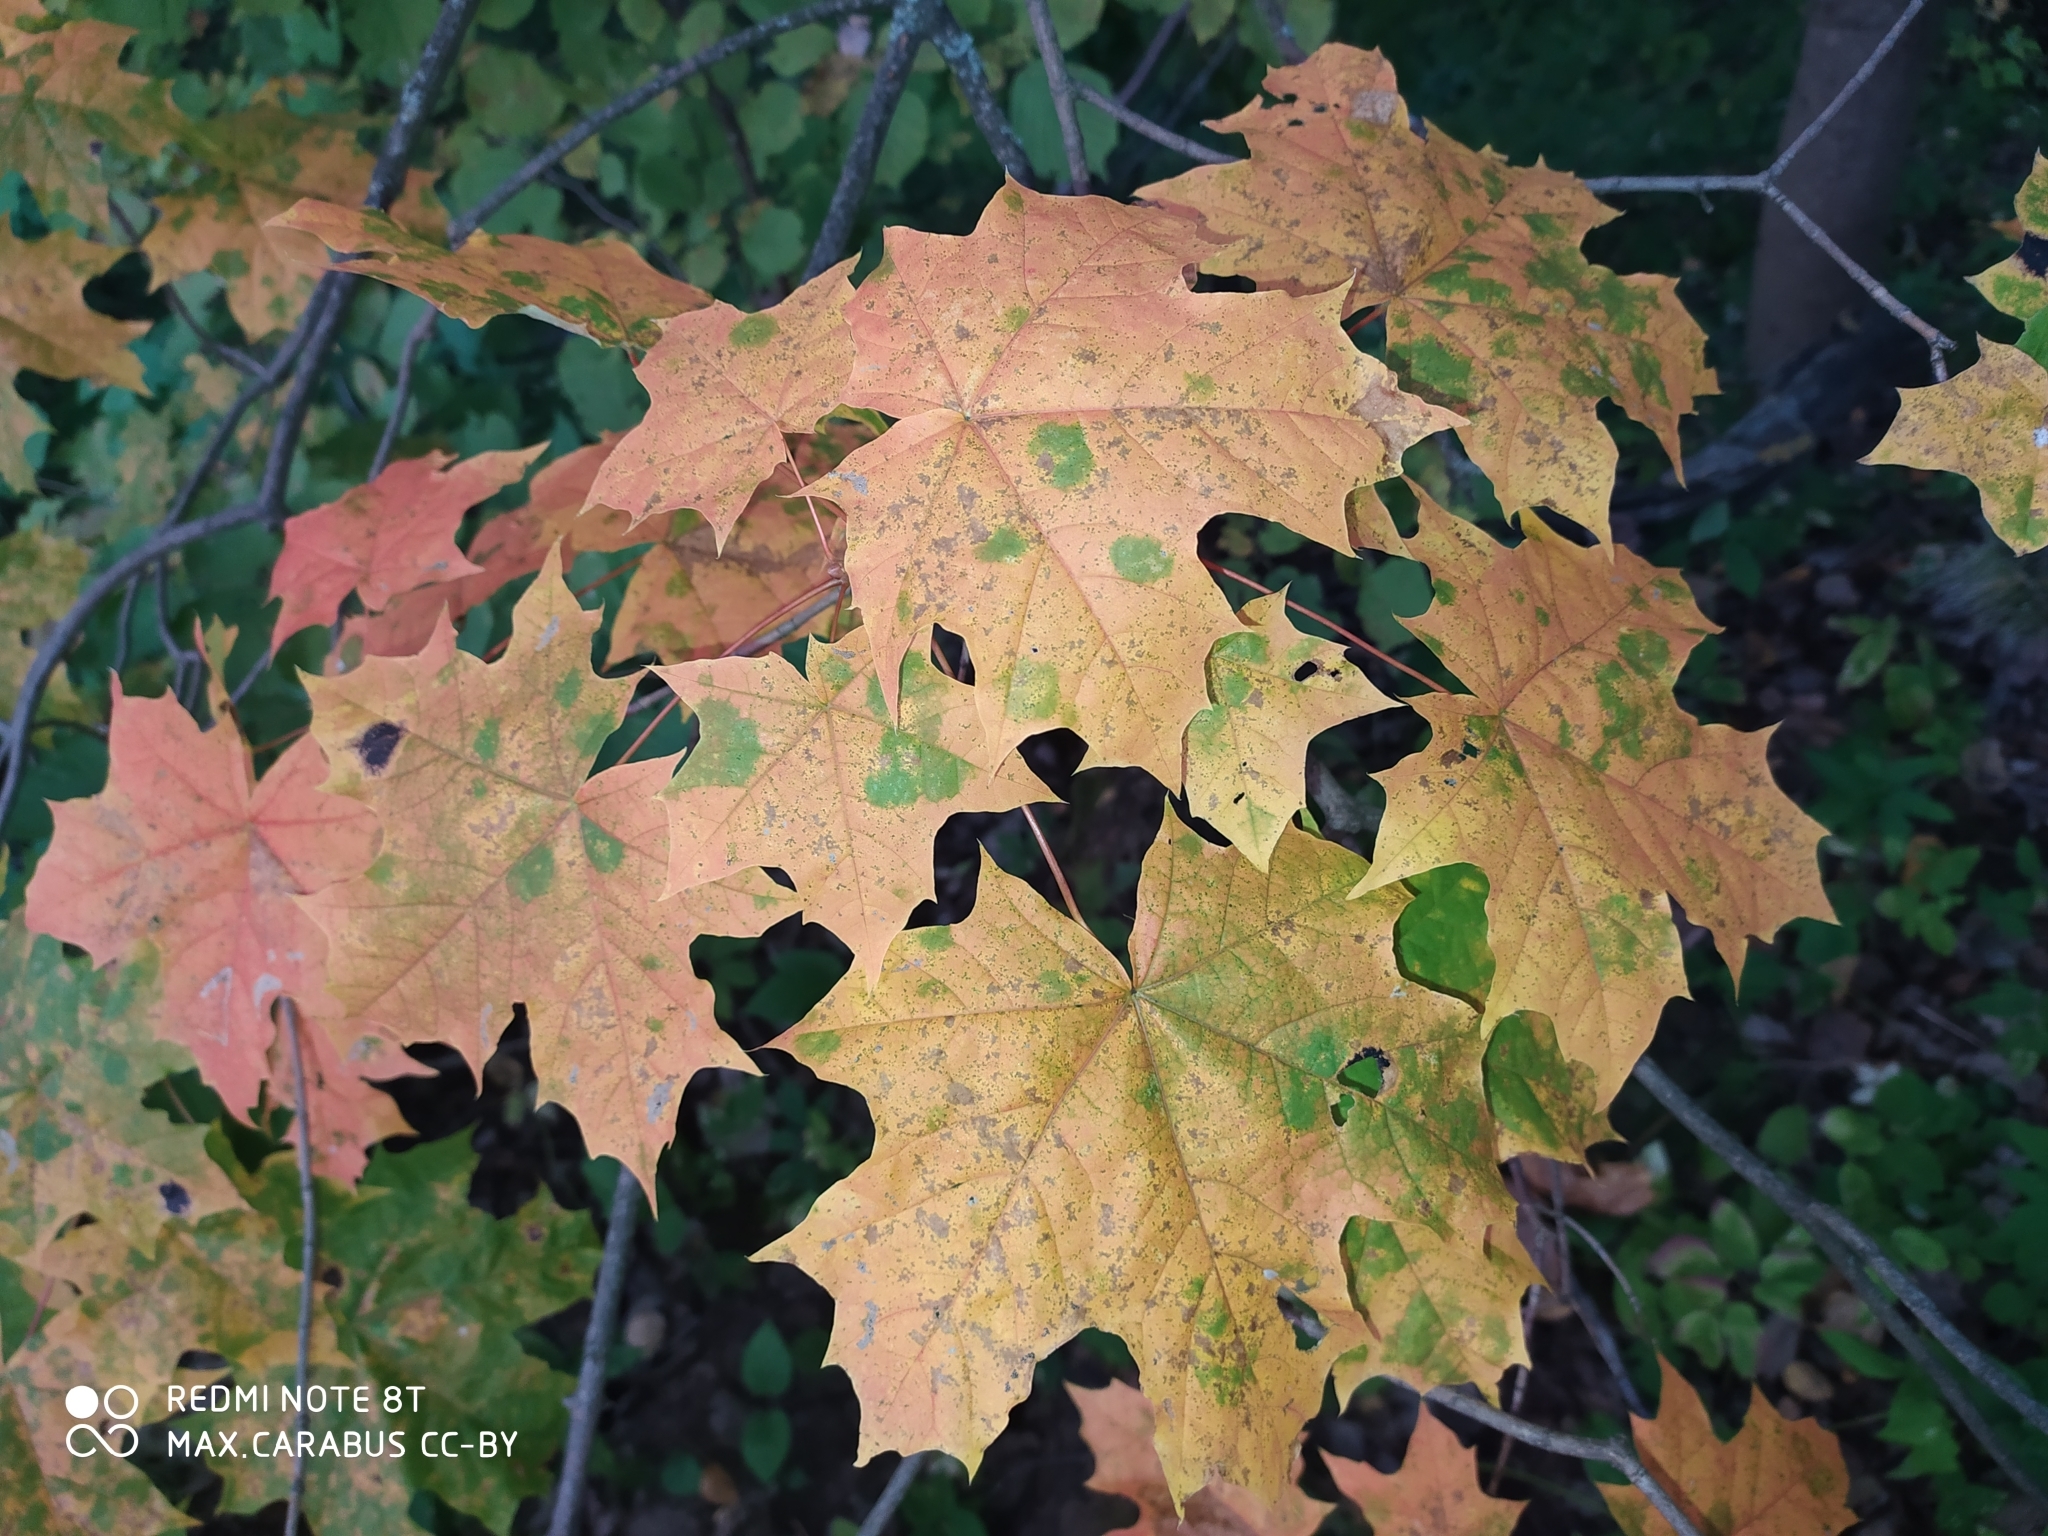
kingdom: Plantae
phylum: Tracheophyta
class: Magnoliopsida
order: Sapindales
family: Sapindaceae
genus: Acer
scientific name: Acer platanoides
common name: Norway maple
